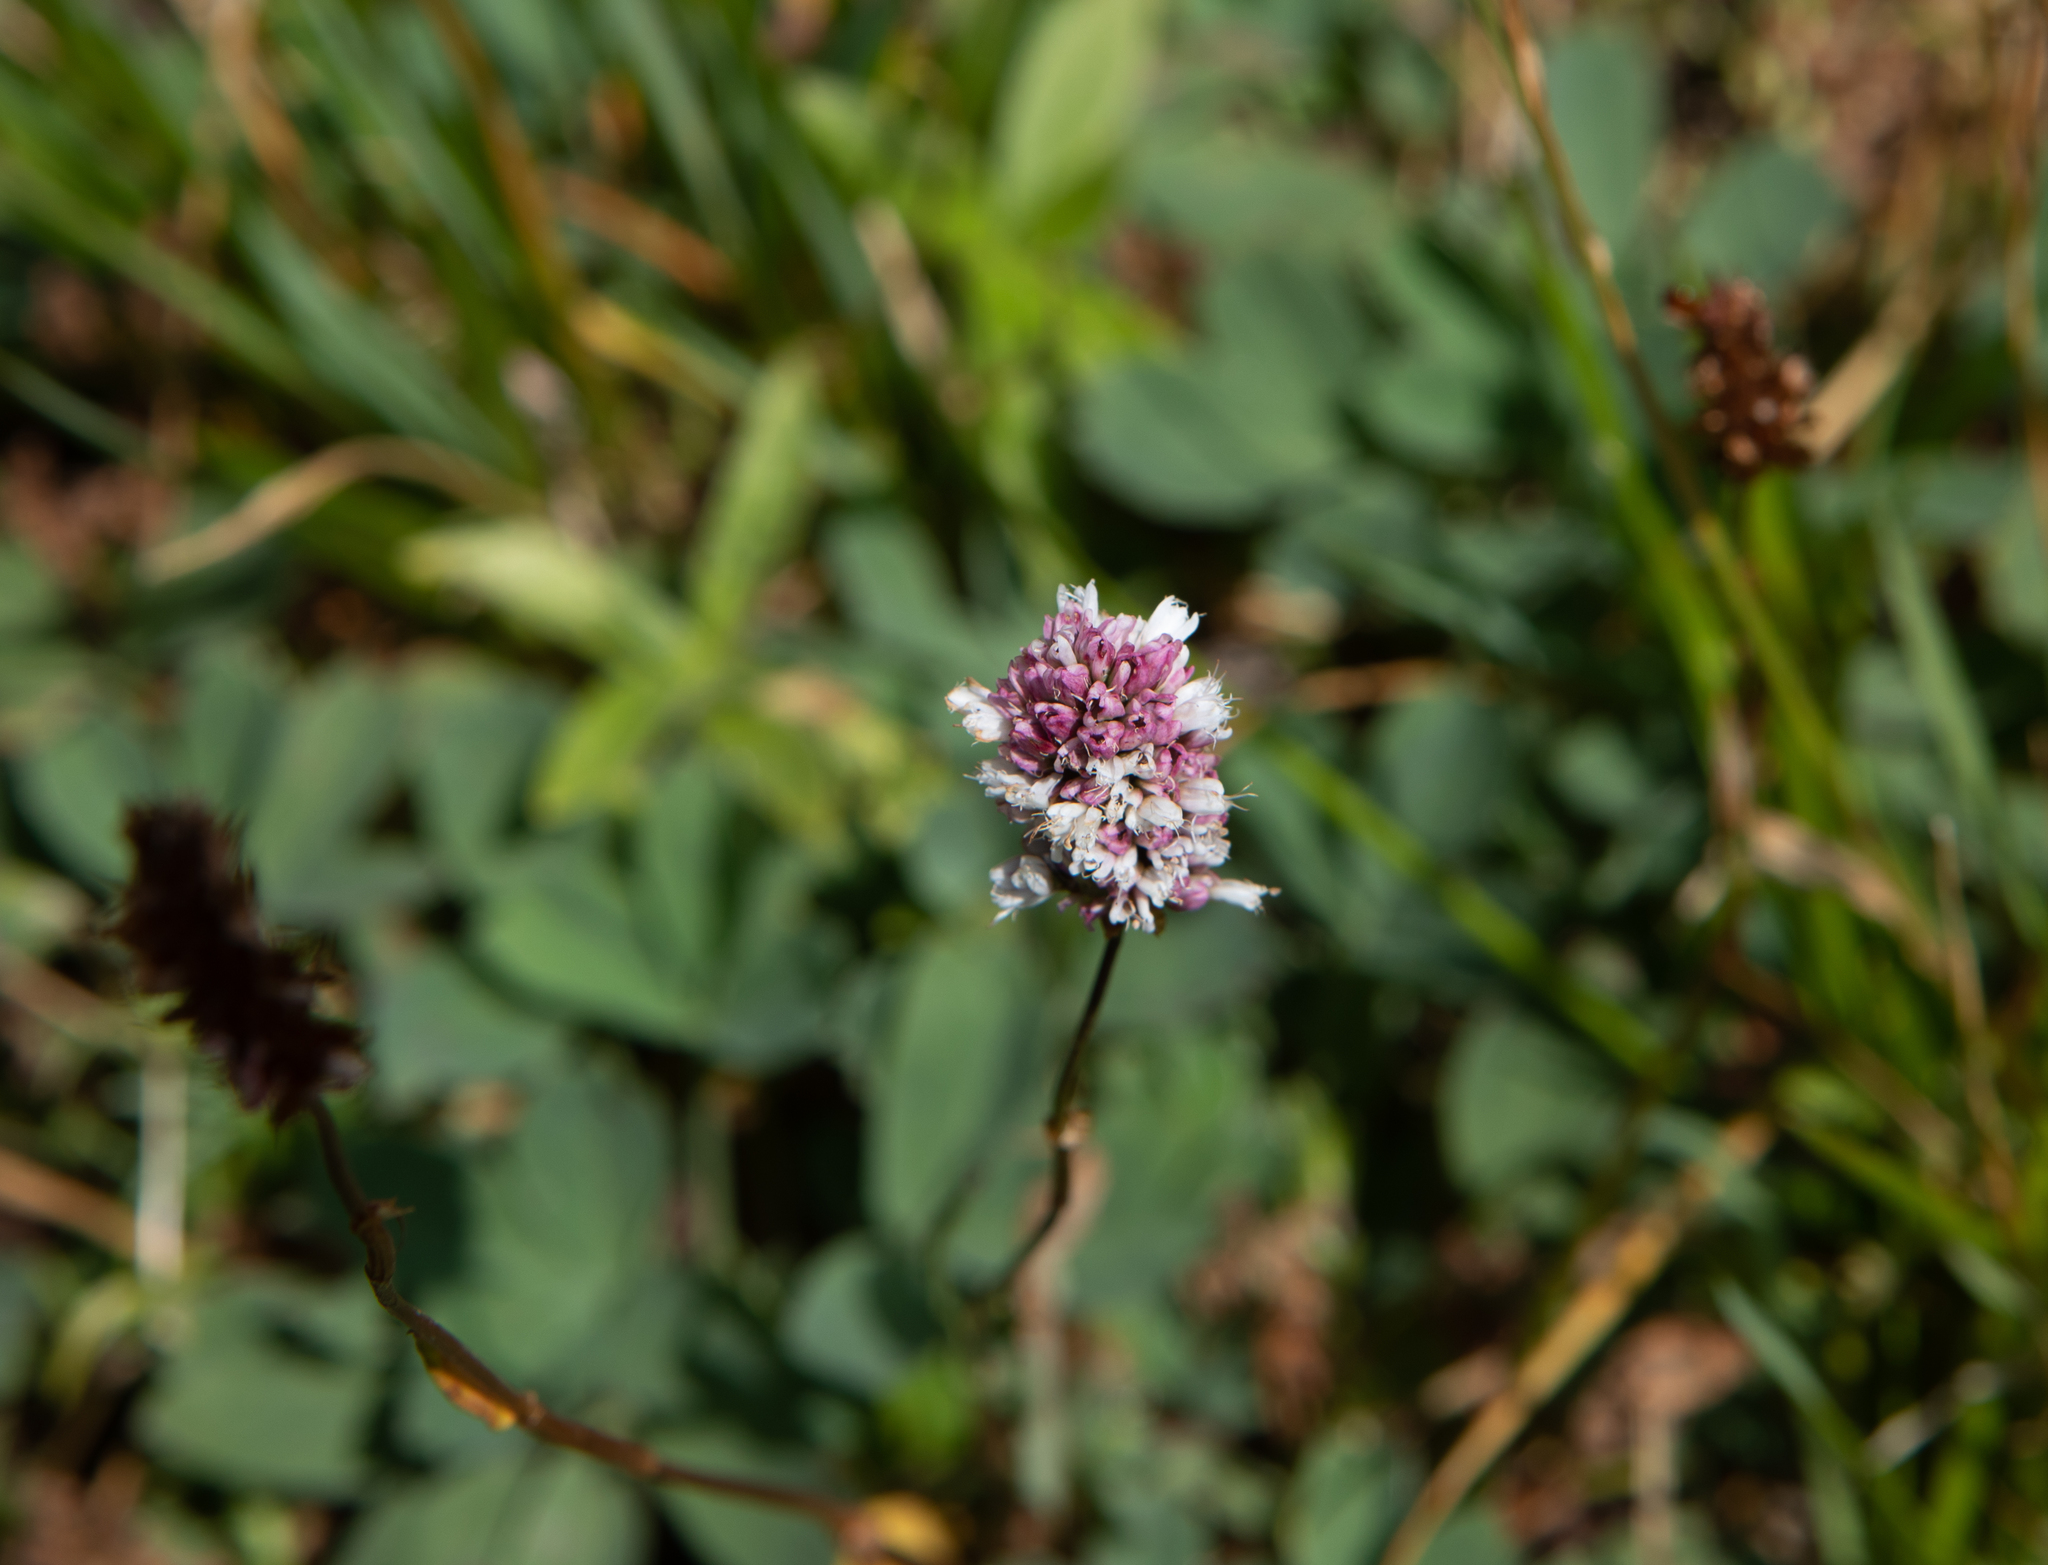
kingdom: Plantae
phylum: Tracheophyta
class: Magnoliopsida
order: Caryophyllales
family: Polygonaceae
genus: Bistorta
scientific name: Bistorta vivipara
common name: Alpine bistort
